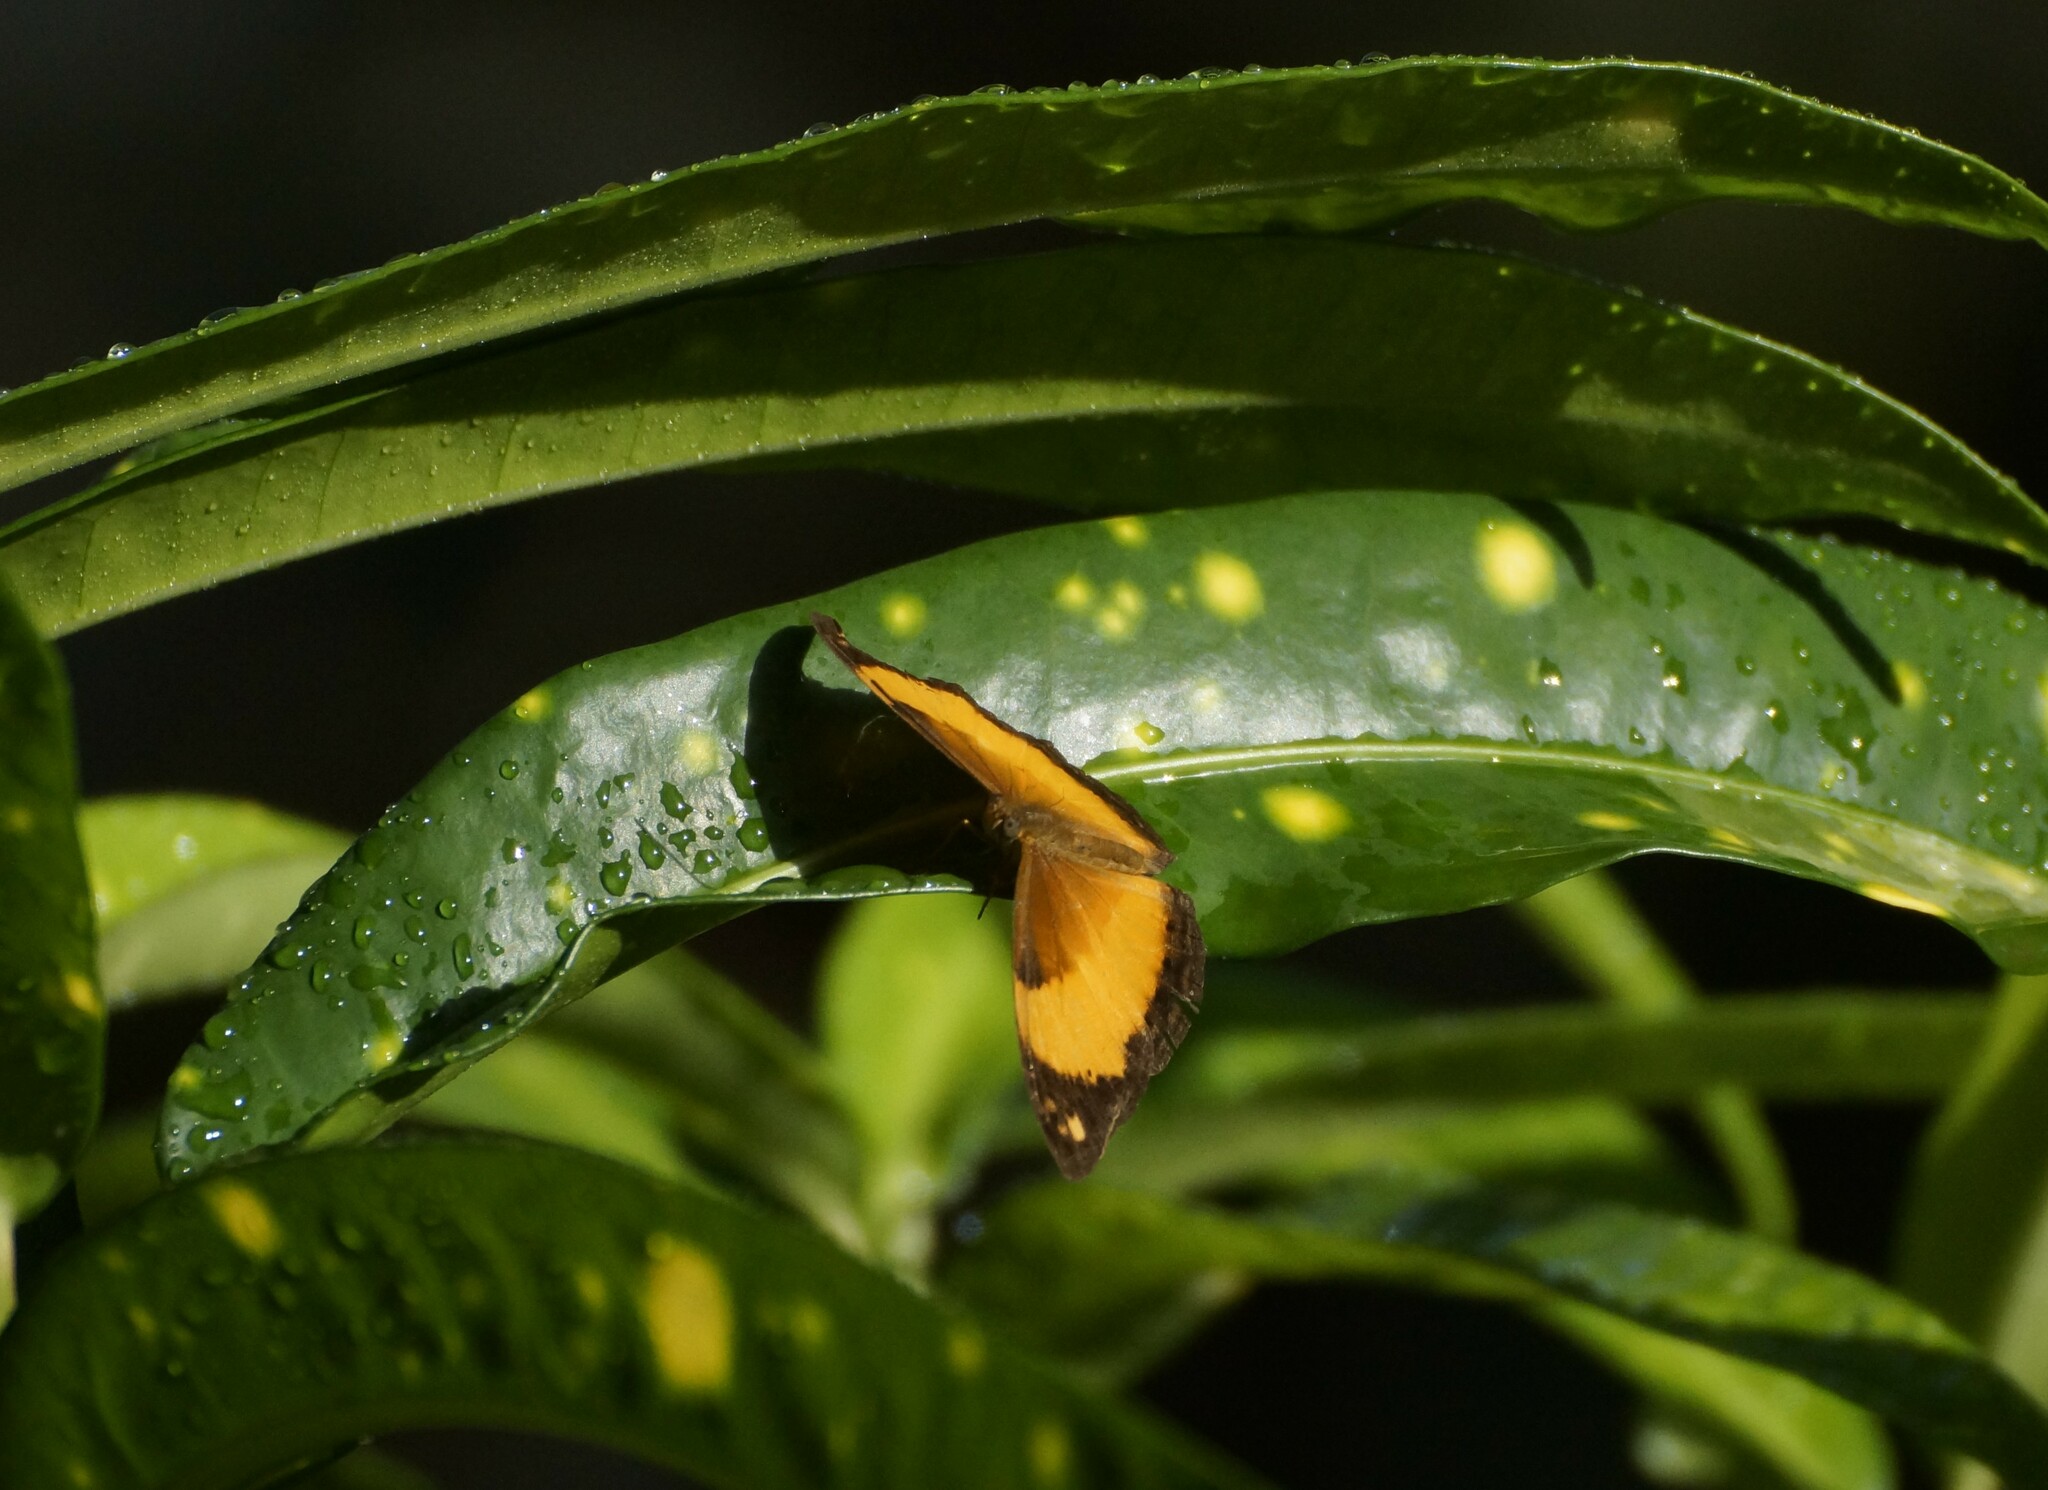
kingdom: Animalia
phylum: Arthropoda
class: Insecta
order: Lepidoptera
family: Nymphalidae
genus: Cupha
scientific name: Cupha prosope
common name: Bordered rustic
